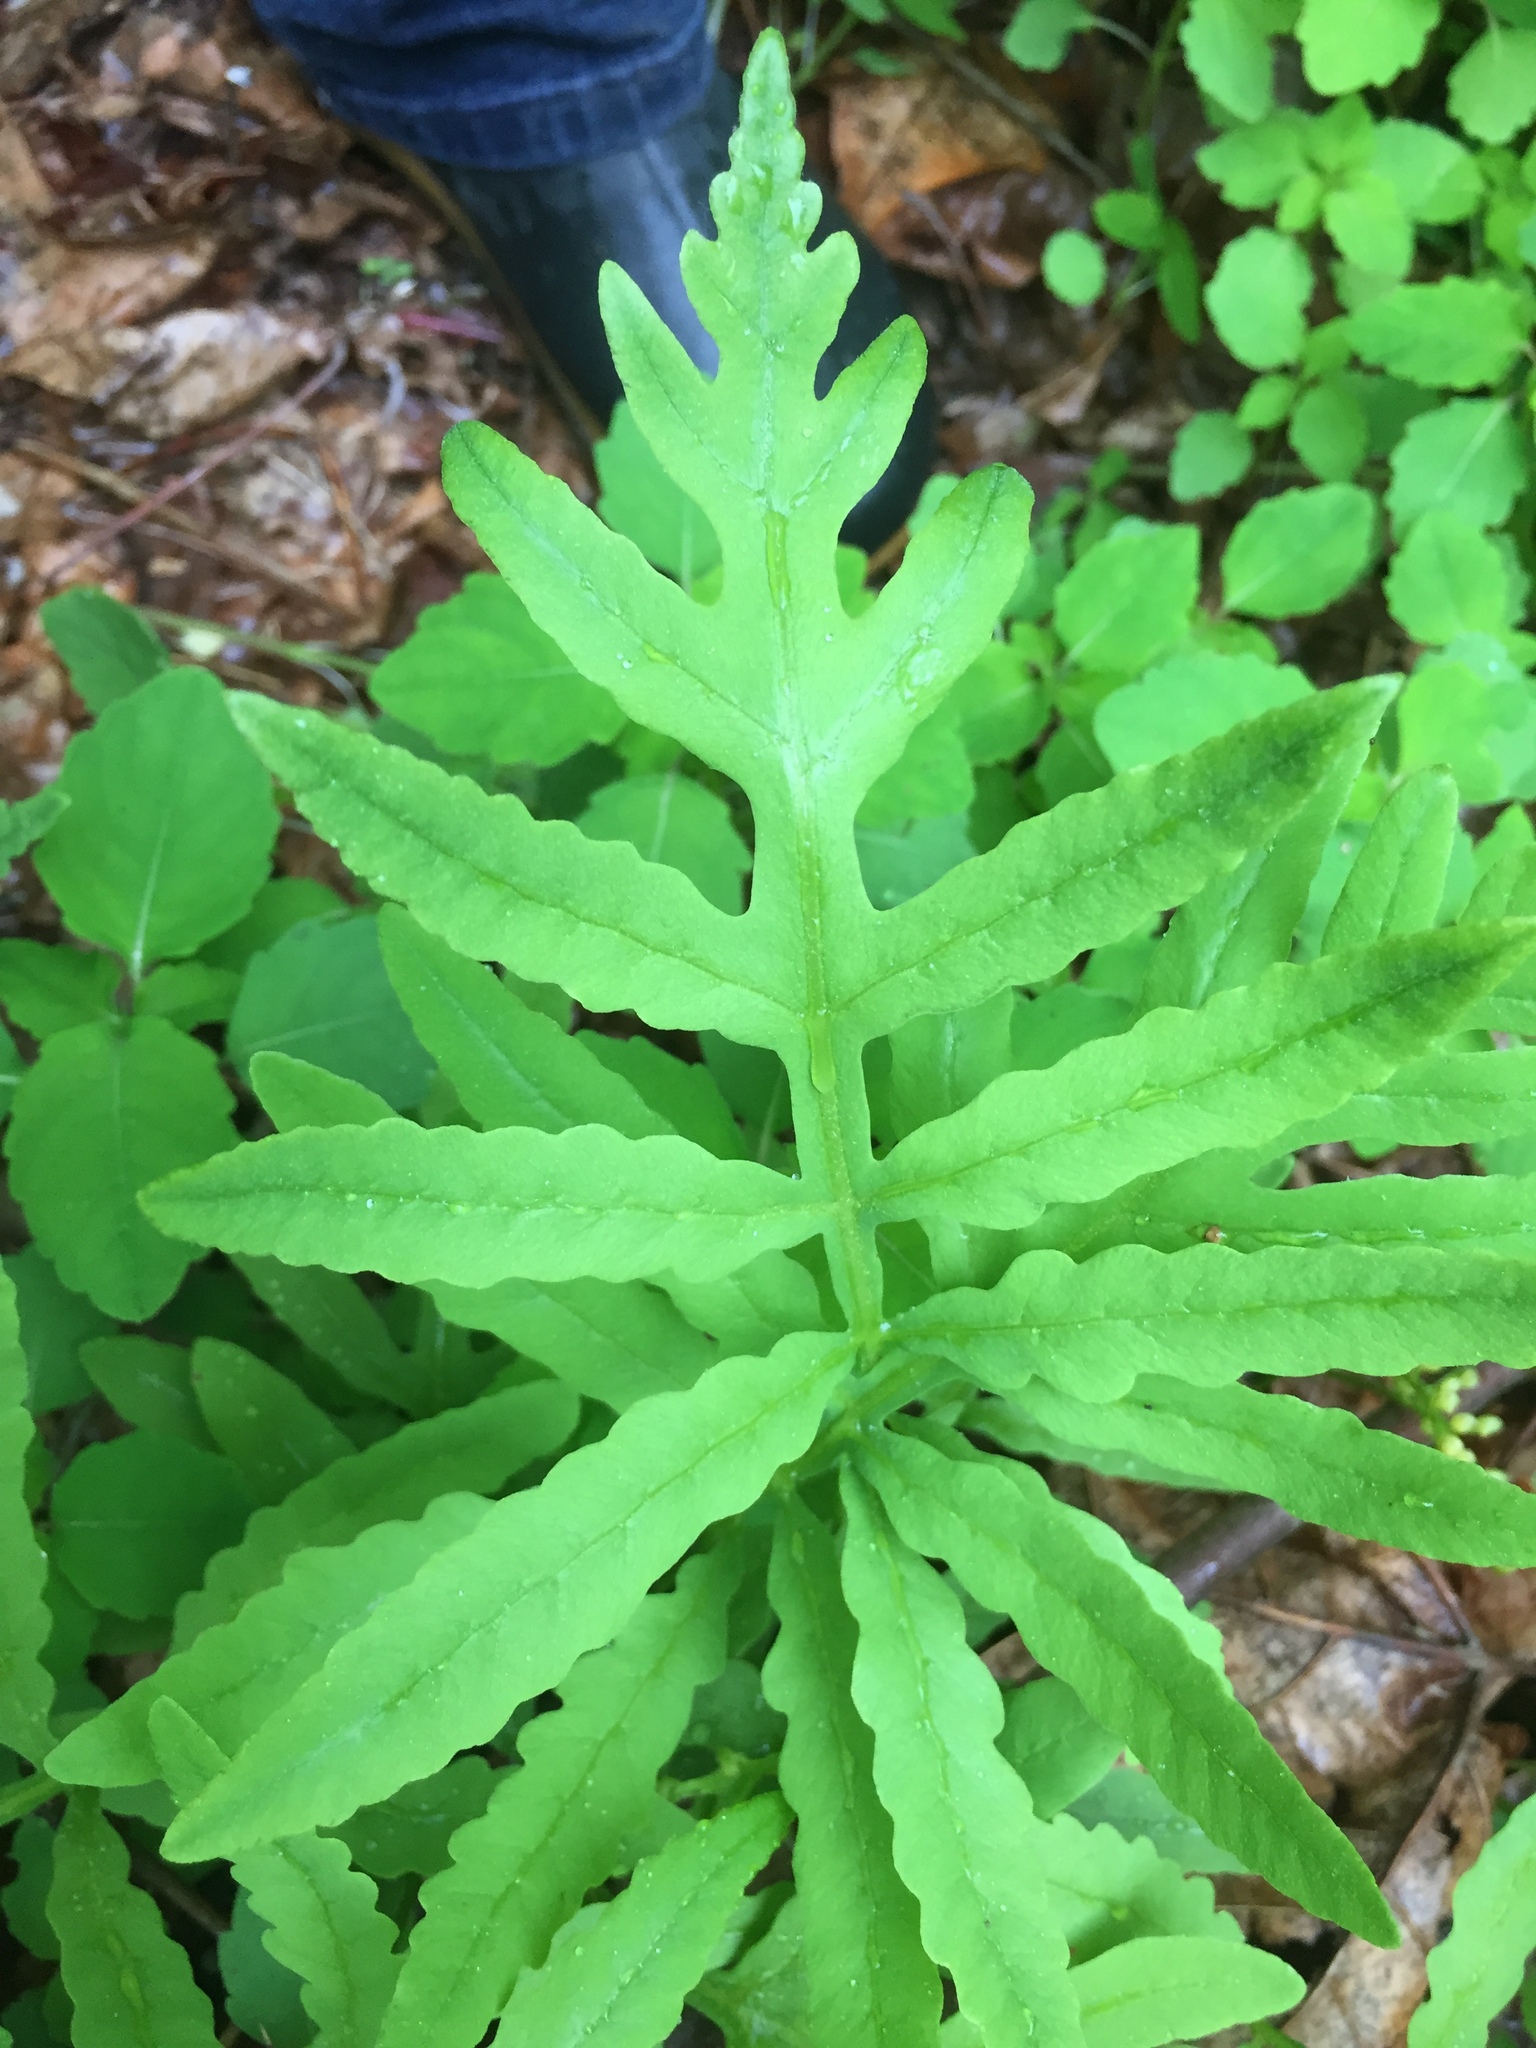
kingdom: Plantae
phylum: Tracheophyta
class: Polypodiopsida
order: Polypodiales
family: Onocleaceae
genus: Onoclea
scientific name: Onoclea sensibilis
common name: Sensitive fern
